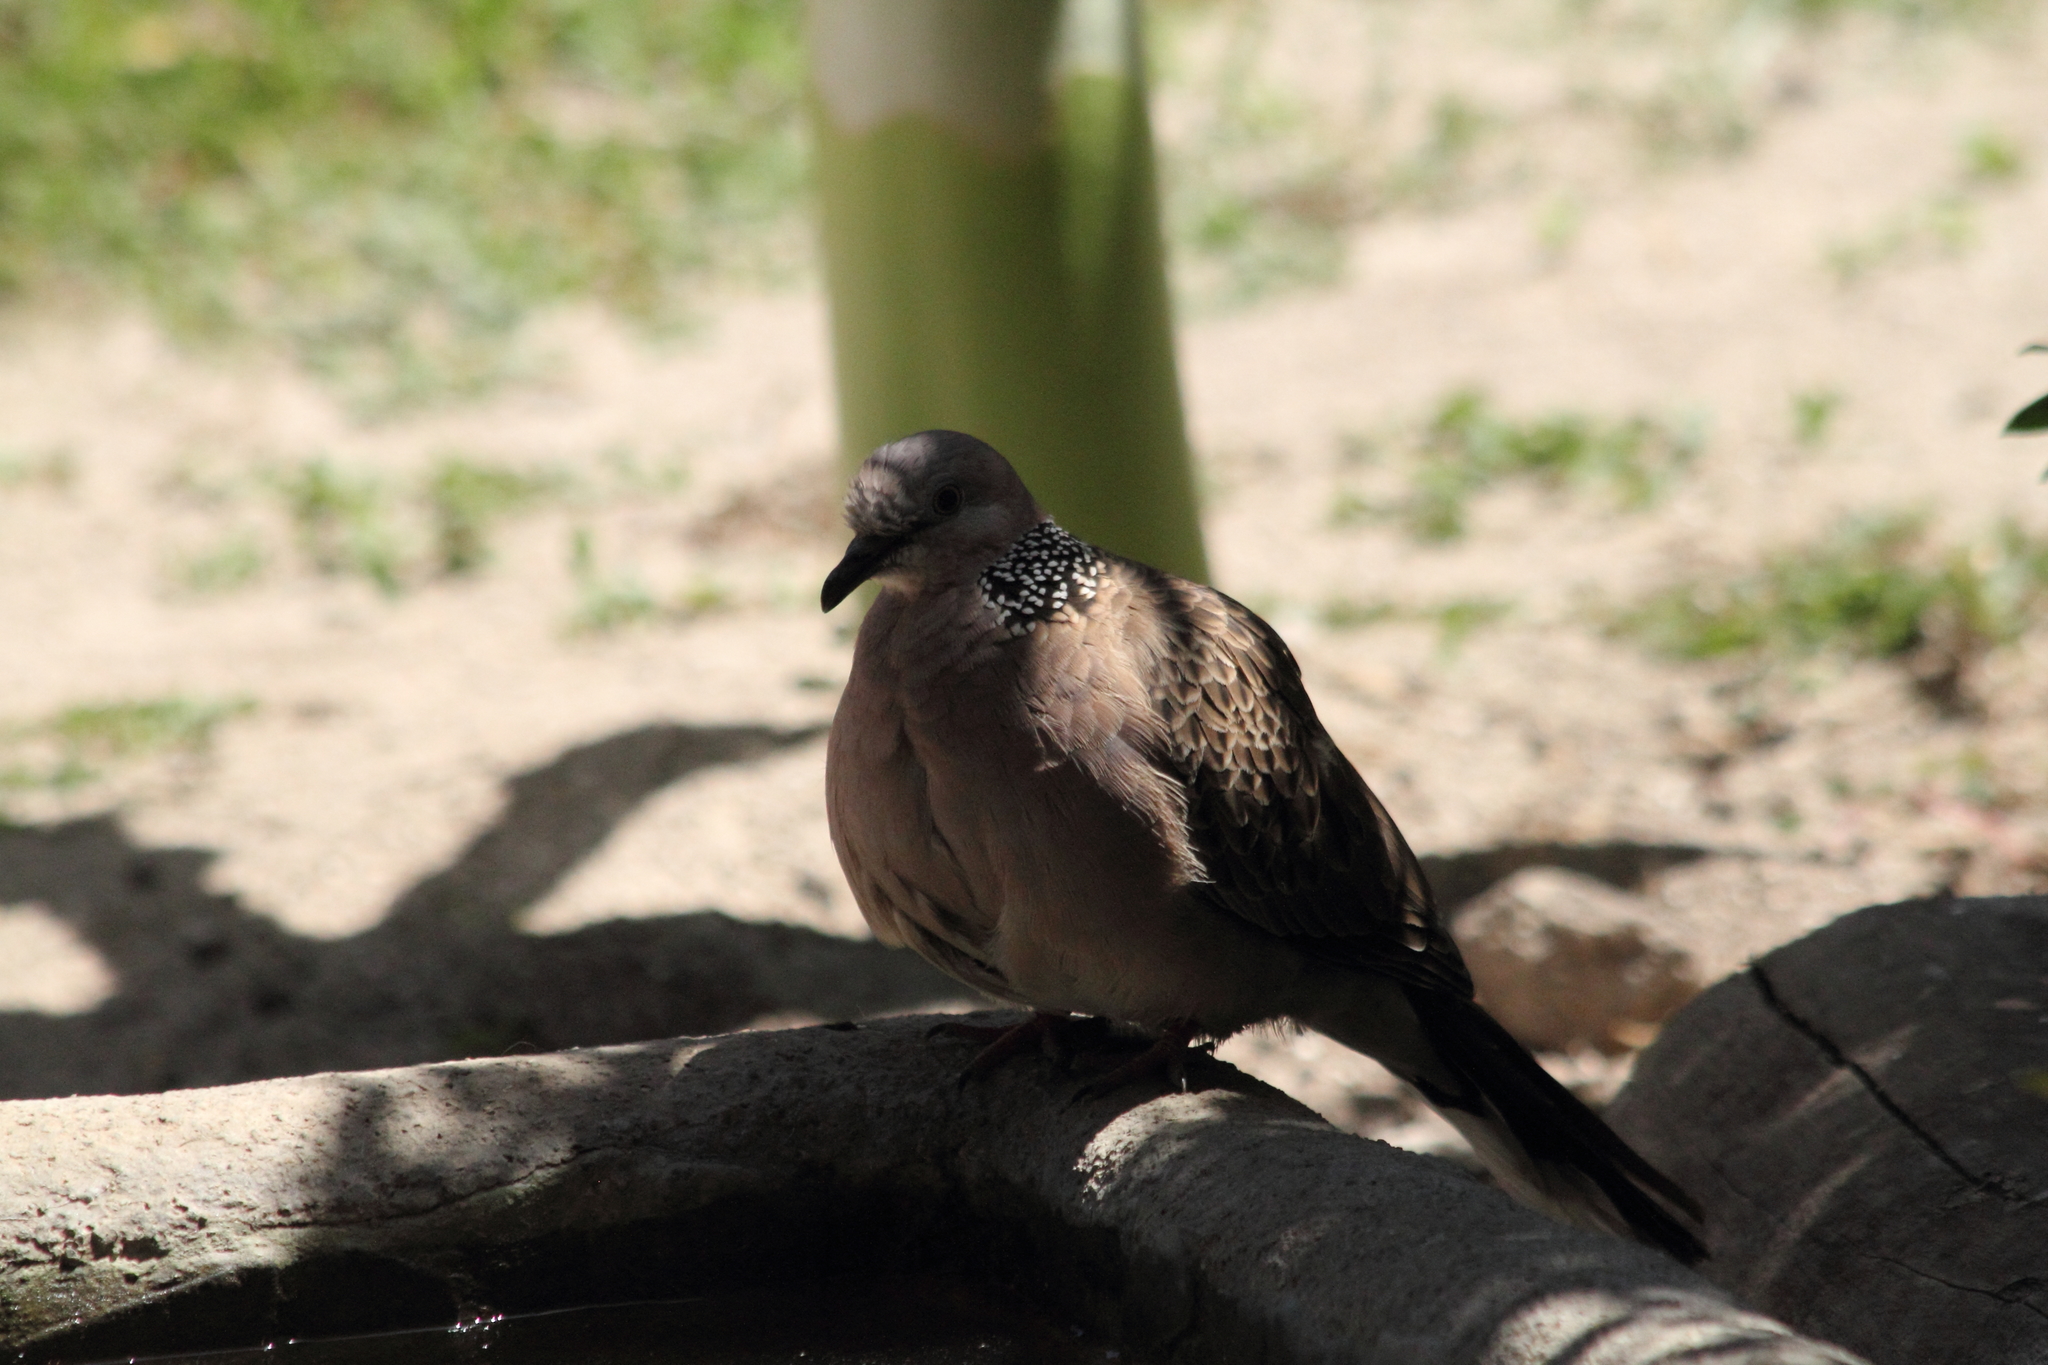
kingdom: Animalia
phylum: Chordata
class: Aves
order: Columbiformes
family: Columbidae
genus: Spilopelia
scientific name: Spilopelia chinensis
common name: Spotted dove
